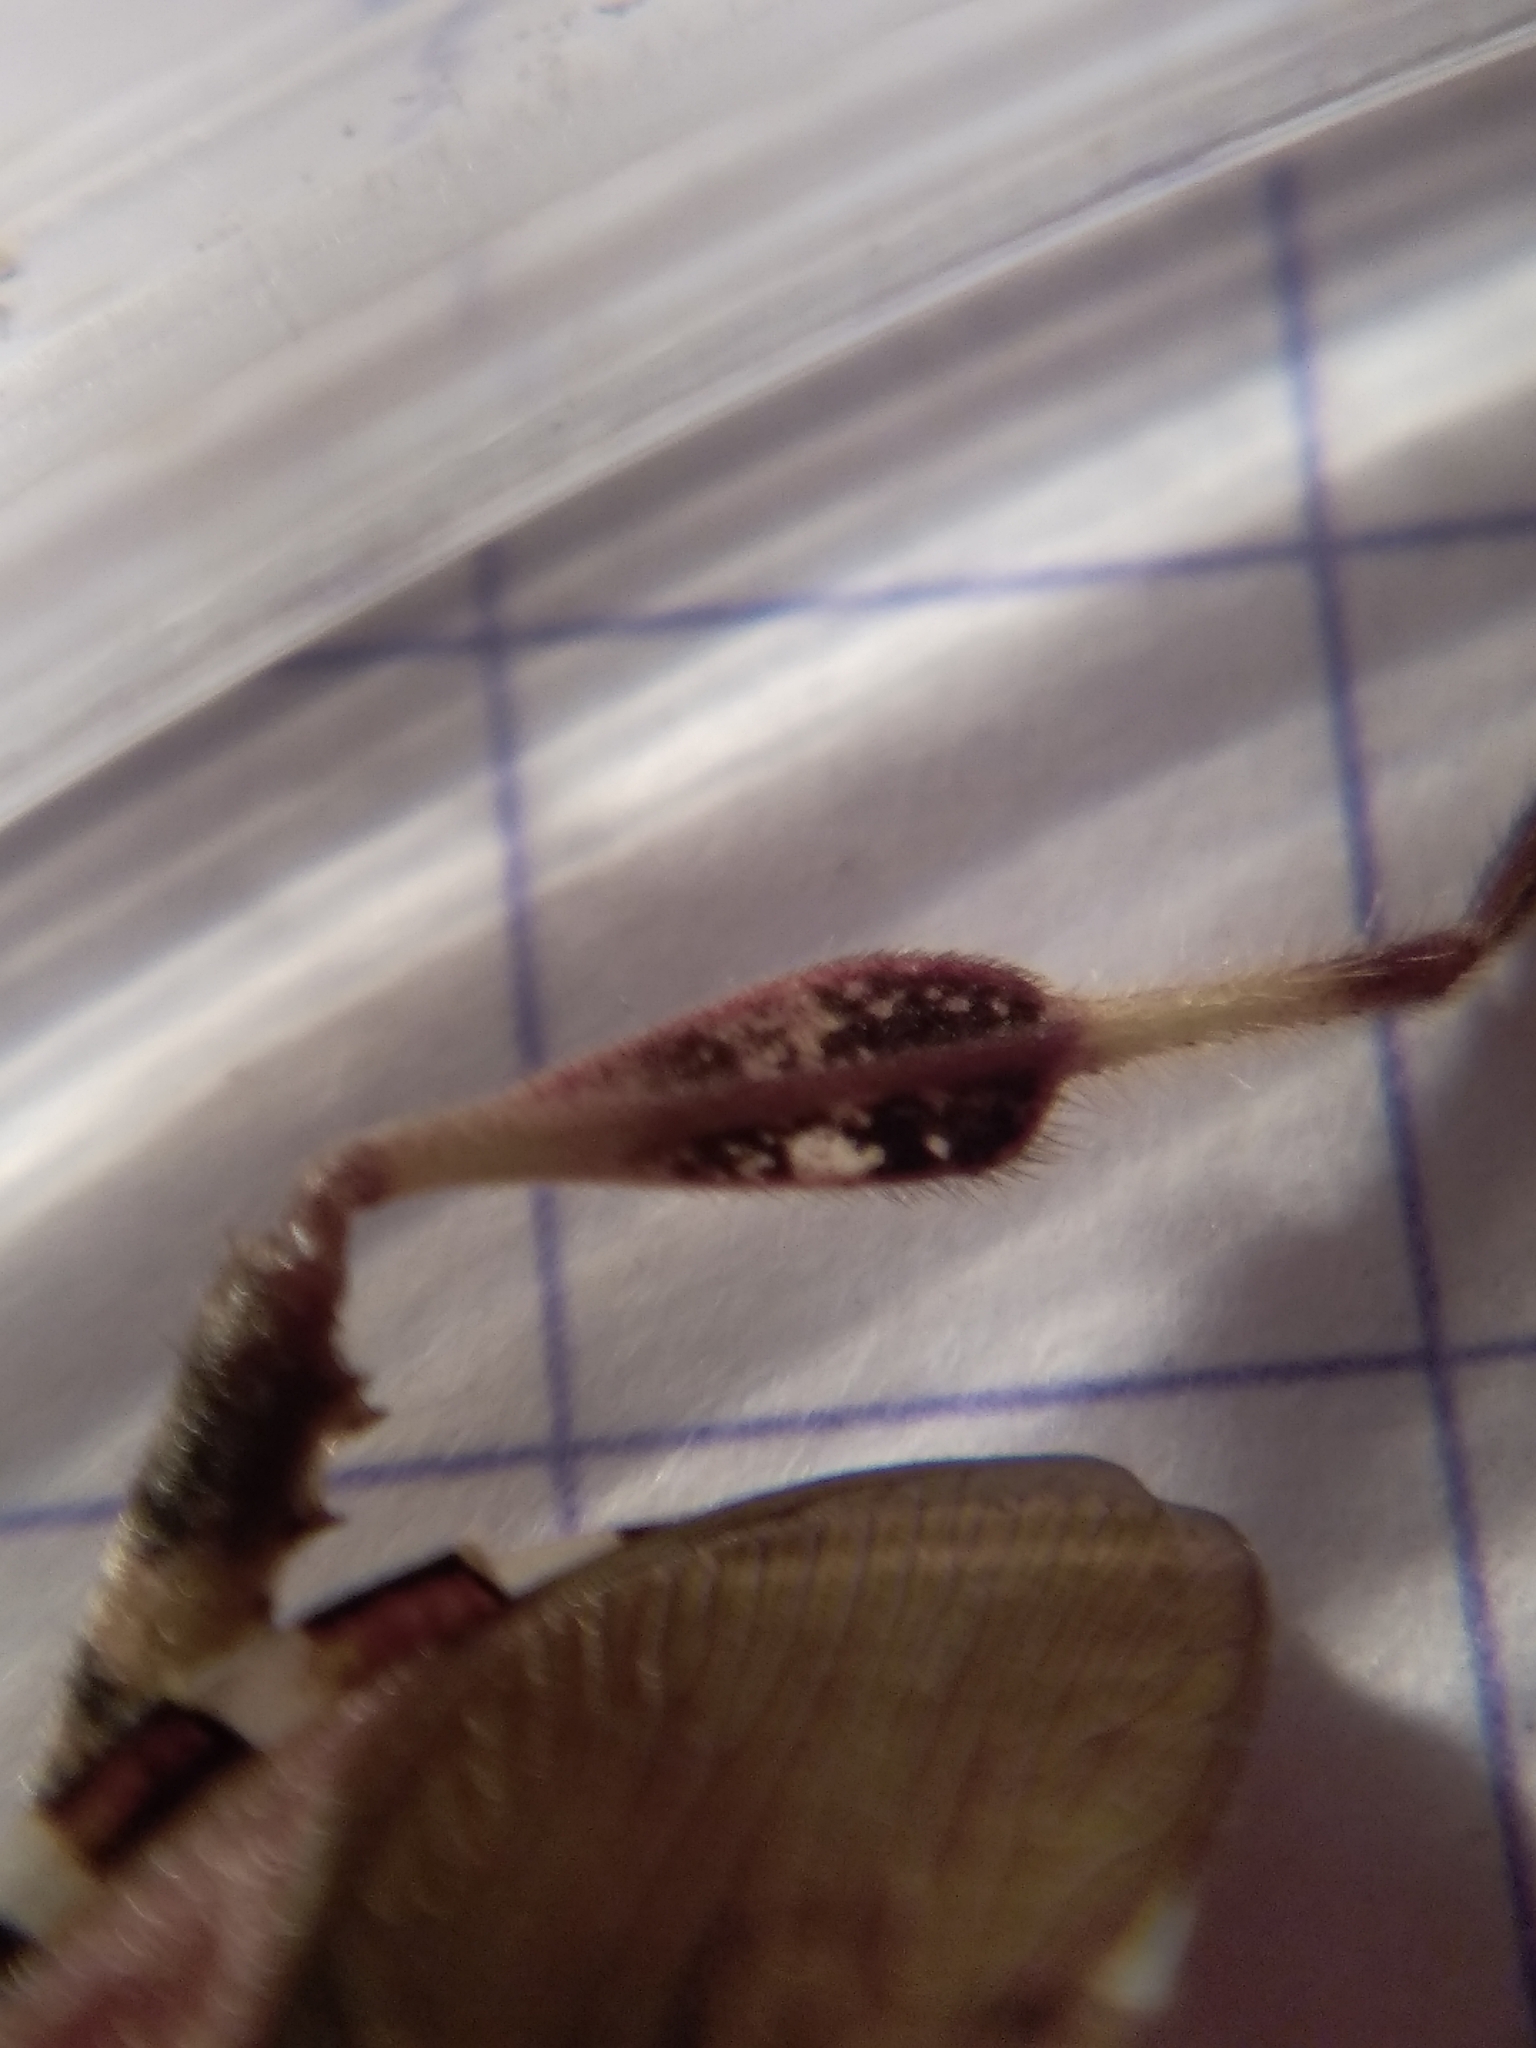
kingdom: Animalia
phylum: Arthropoda
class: Insecta
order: Hemiptera
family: Coreidae
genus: Leptoglossus
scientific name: Leptoglossus occidentalis
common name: Western conifer-seed bug
